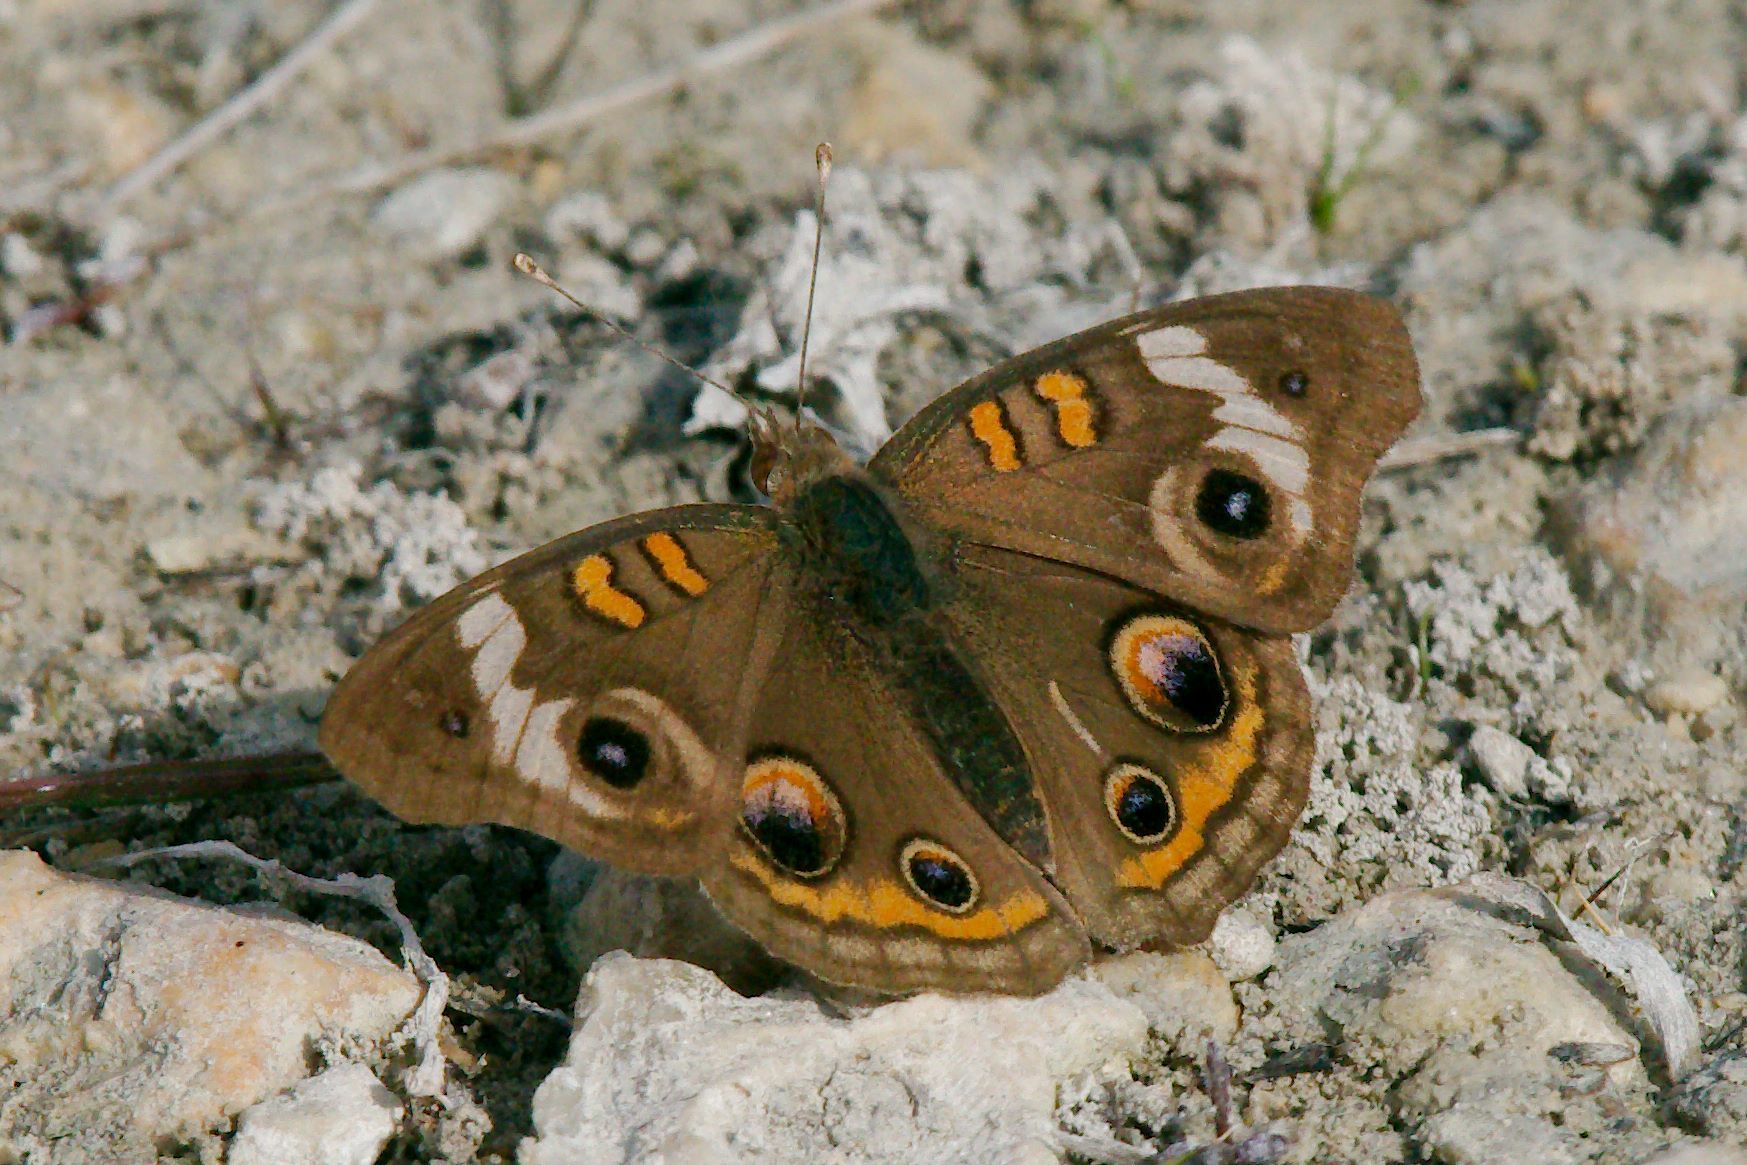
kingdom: Animalia
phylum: Arthropoda
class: Insecta
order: Lepidoptera
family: Nymphalidae
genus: Junonia
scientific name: Junonia coenia
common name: Common buckeye
